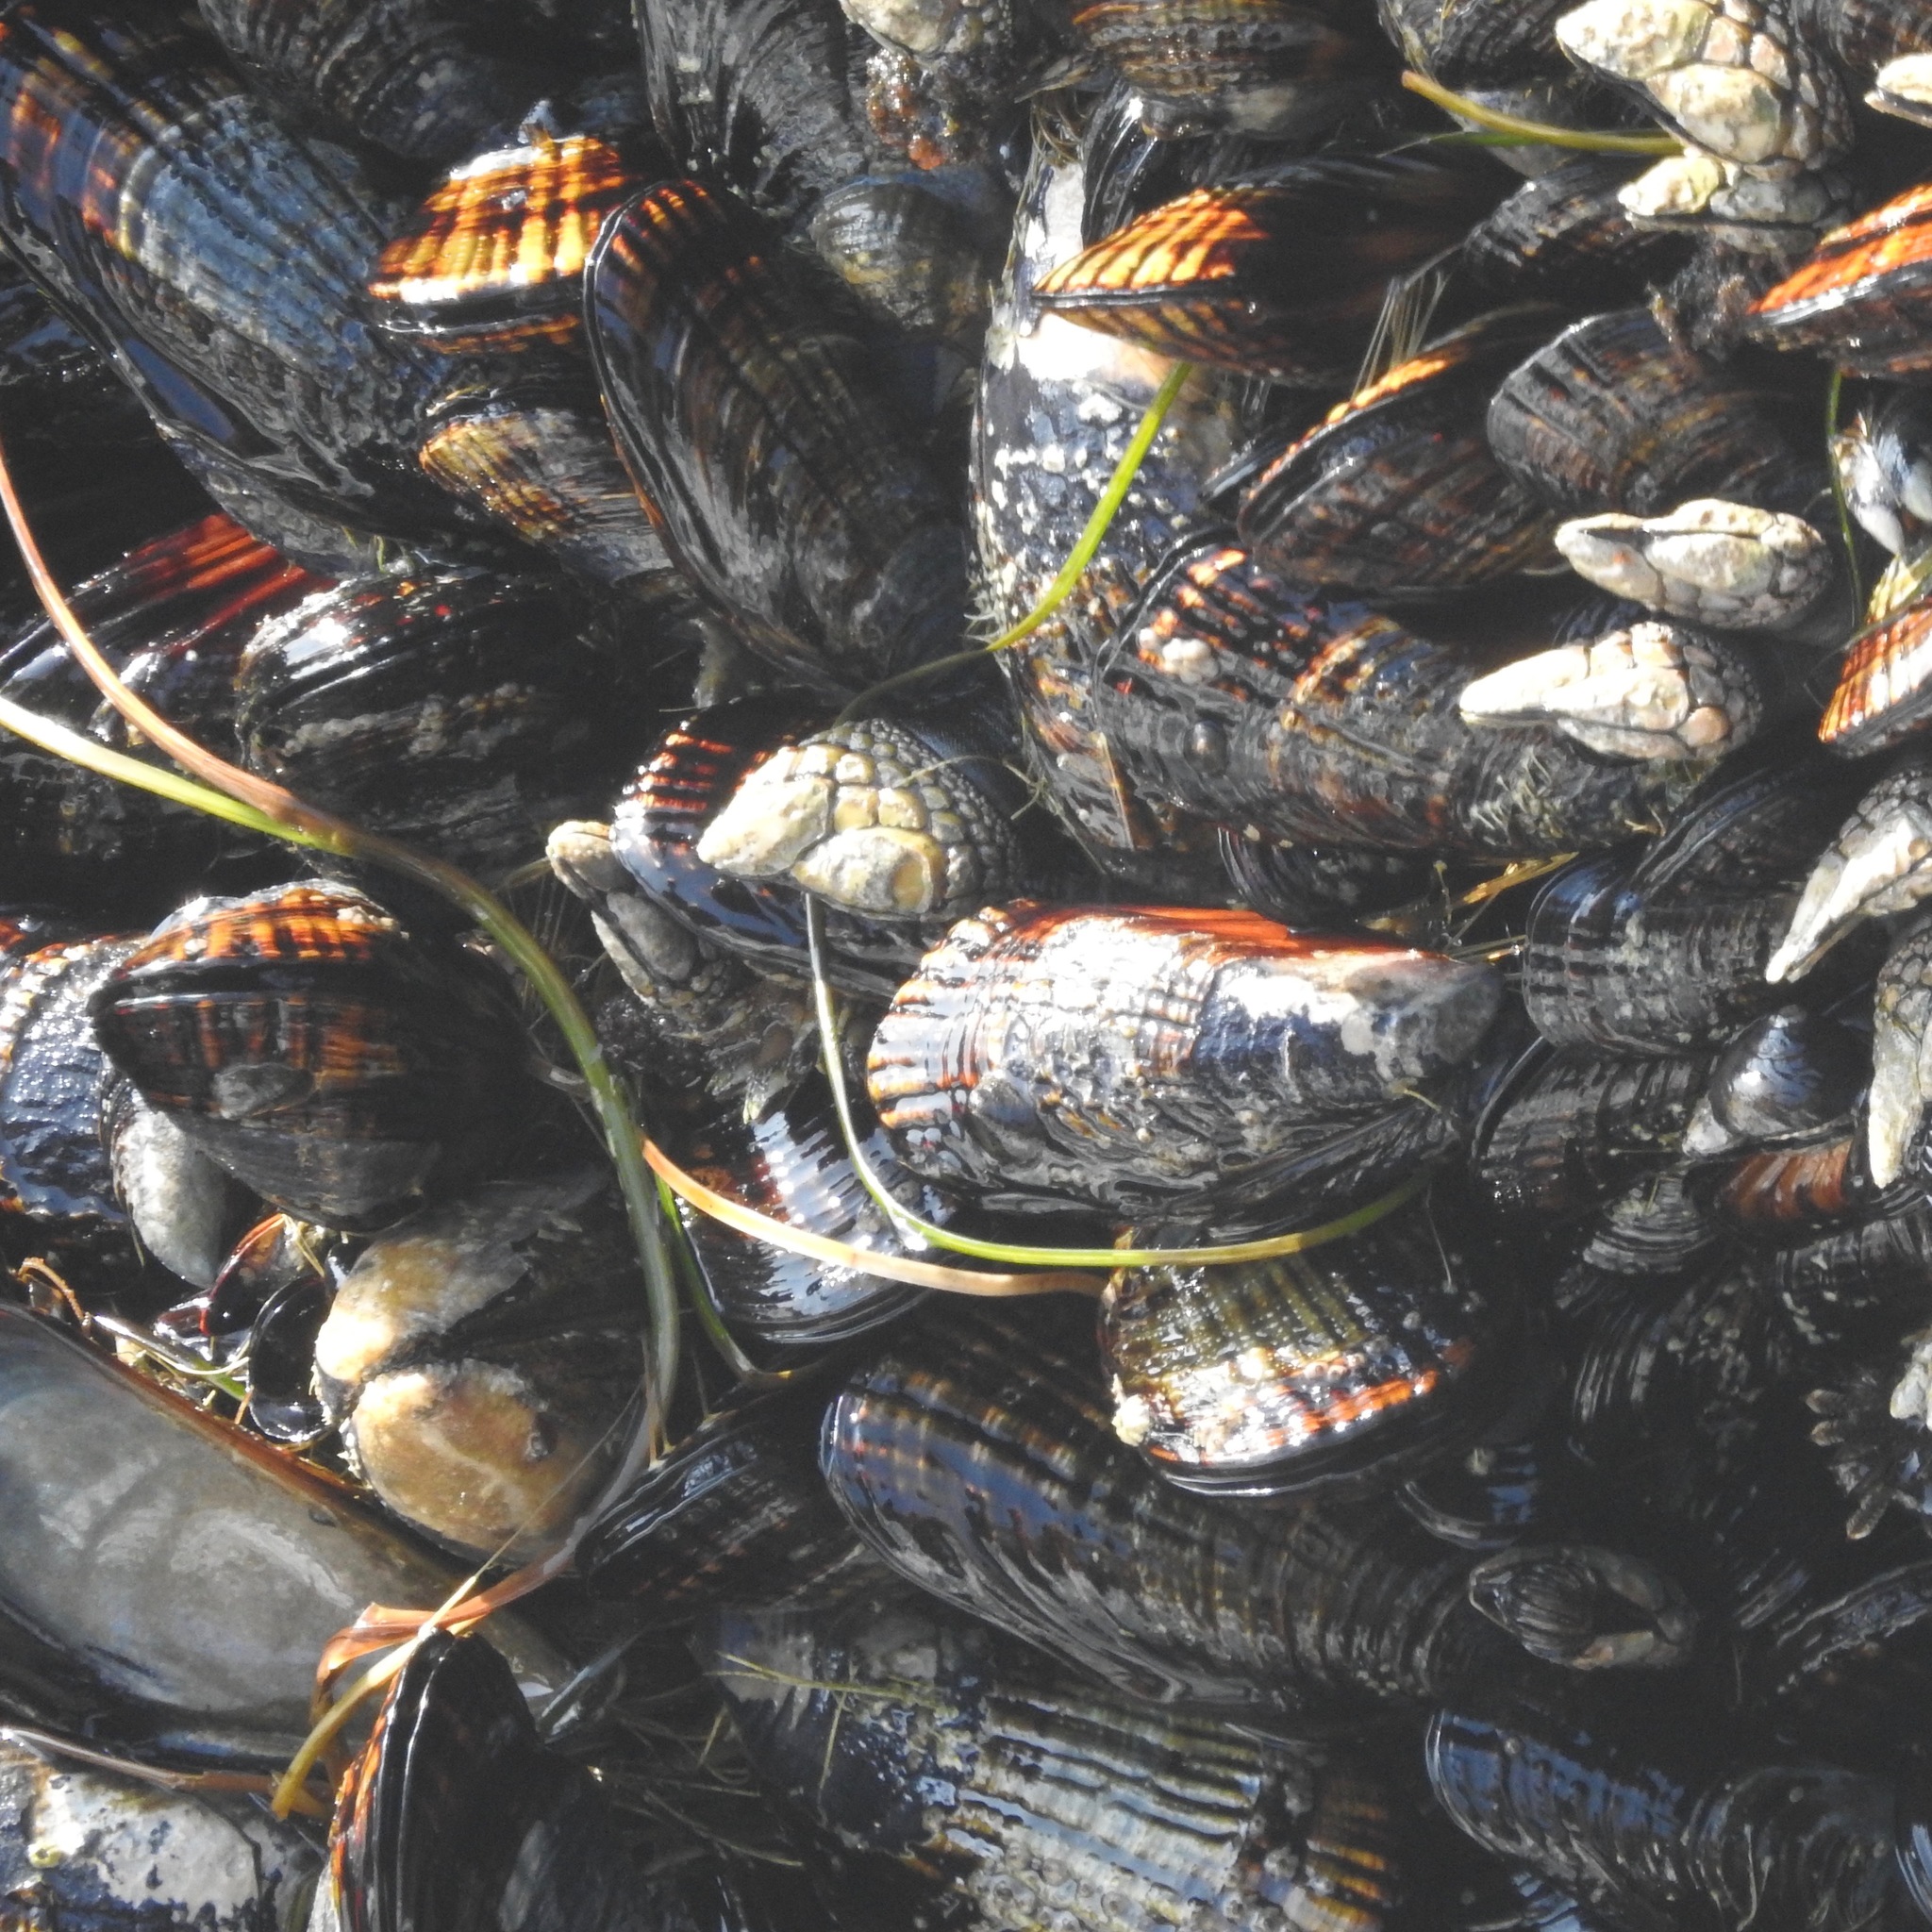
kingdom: Animalia
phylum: Mollusca
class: Bivalvia
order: Mytilida
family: Mytilidae
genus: Mytilus
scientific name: Mytilus californianus
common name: California mussel
